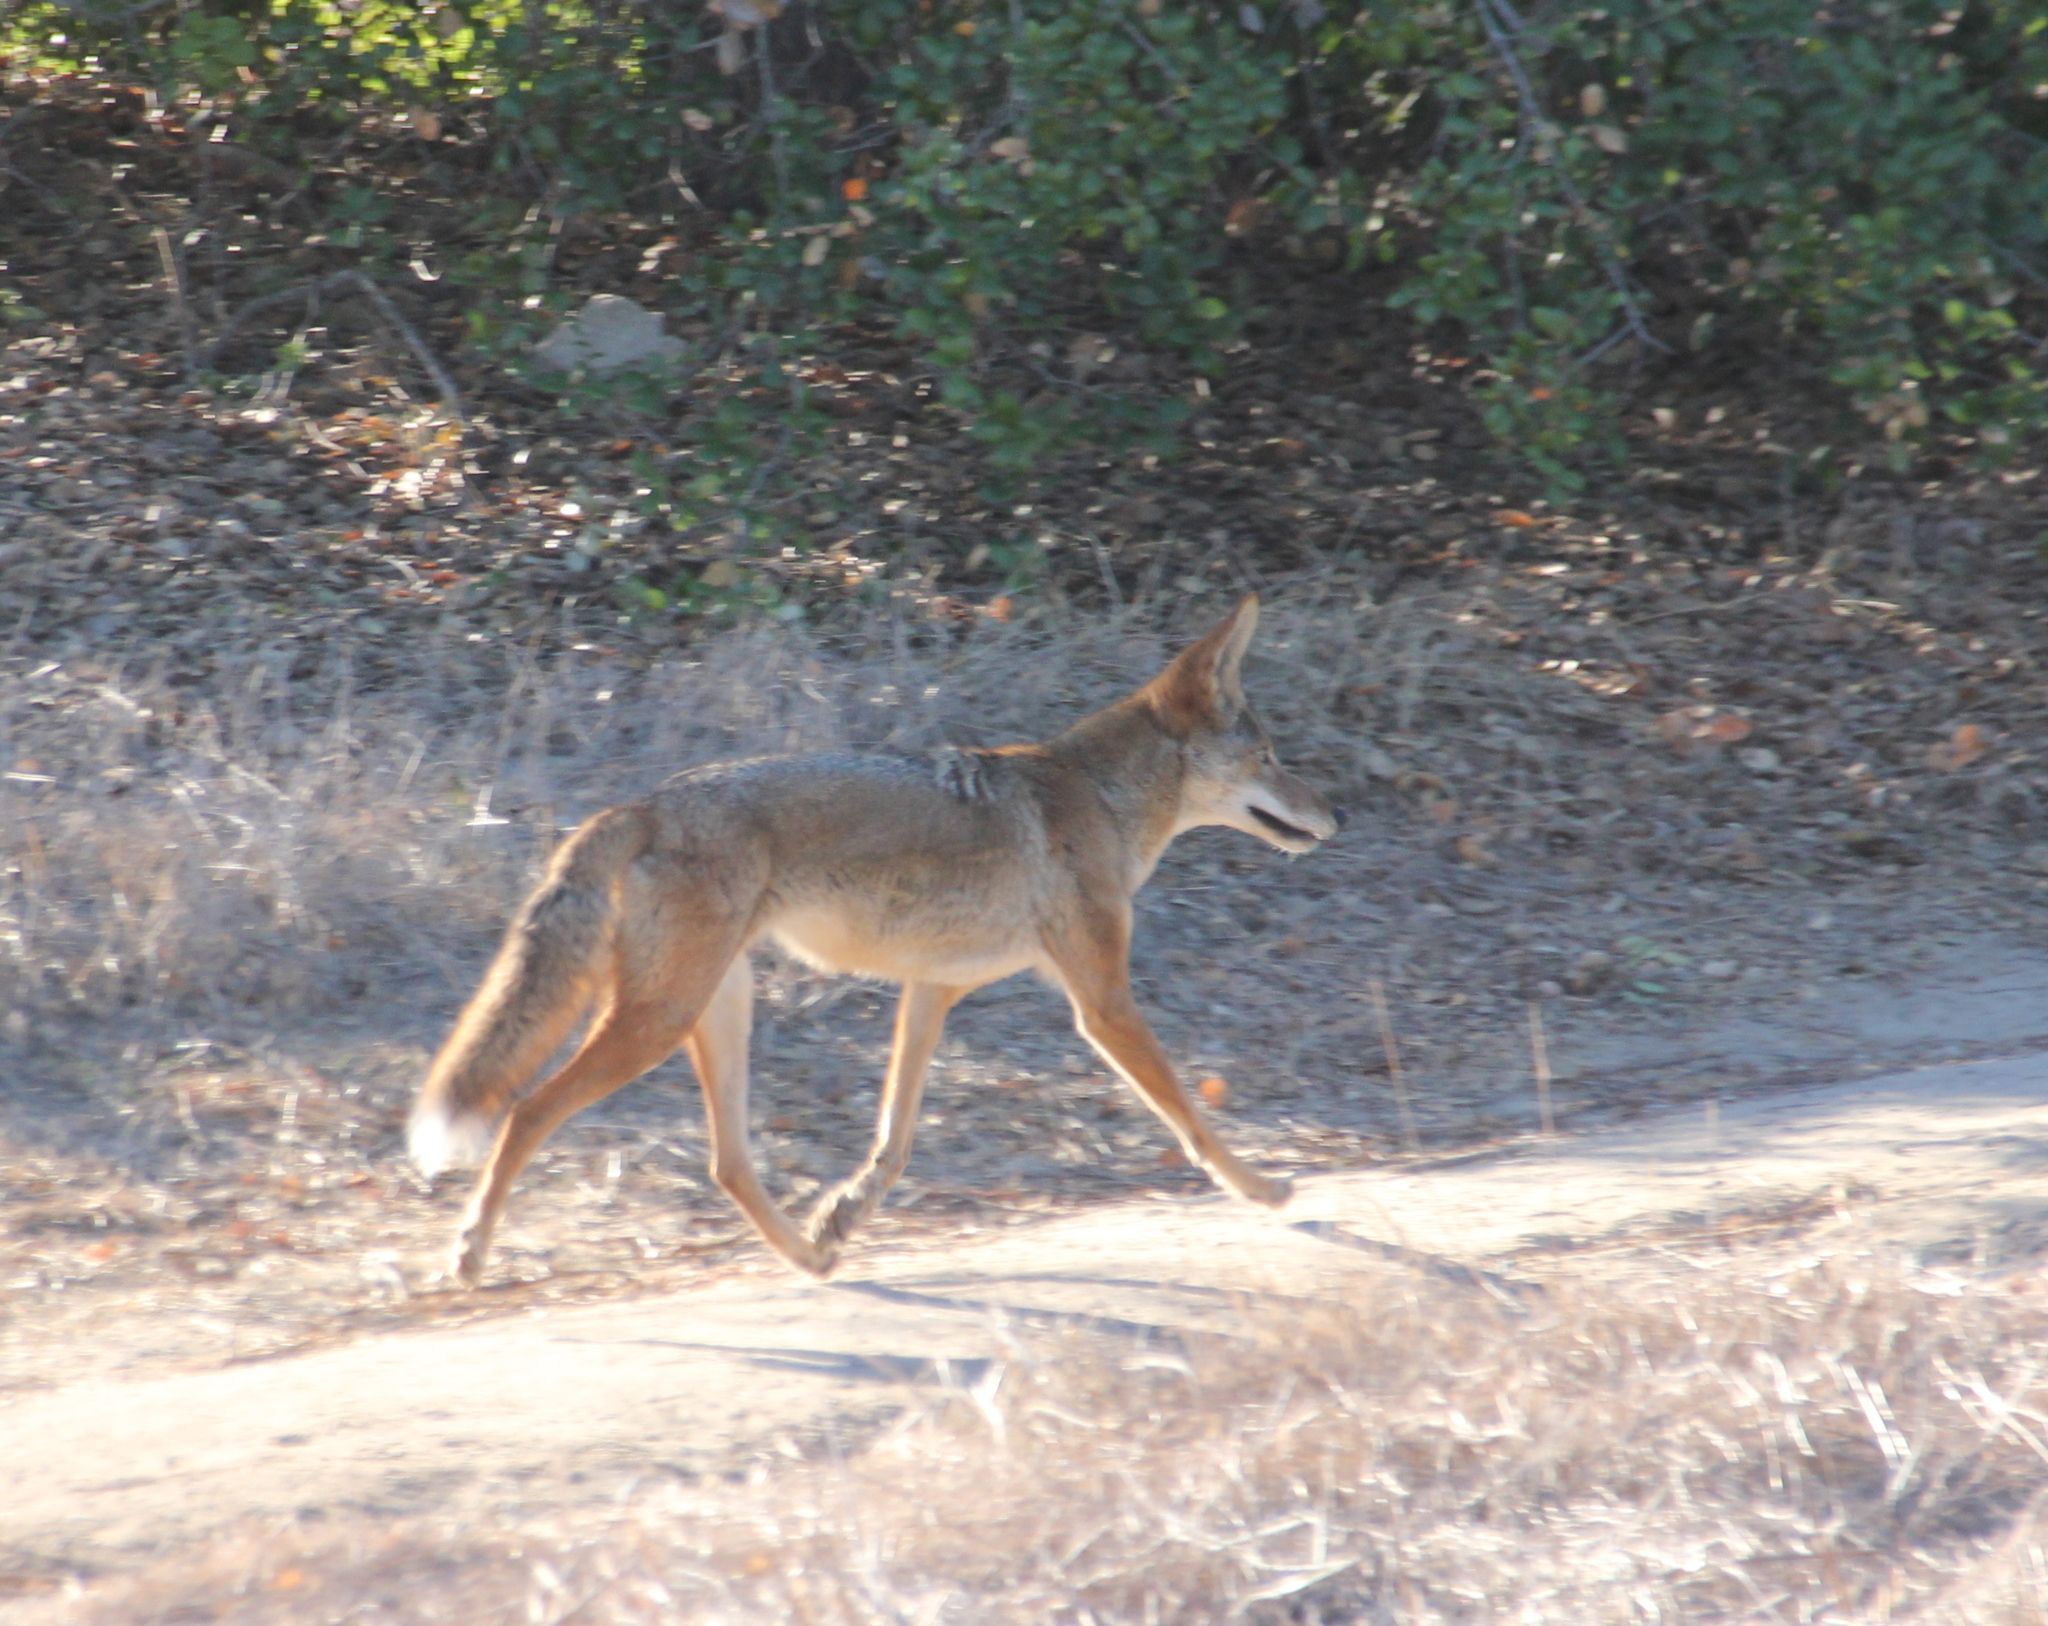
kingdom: Animalia
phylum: Chordata
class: Mammalia
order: Carnivora
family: Canidae
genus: Canis
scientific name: Canis latrans
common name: Coyote
